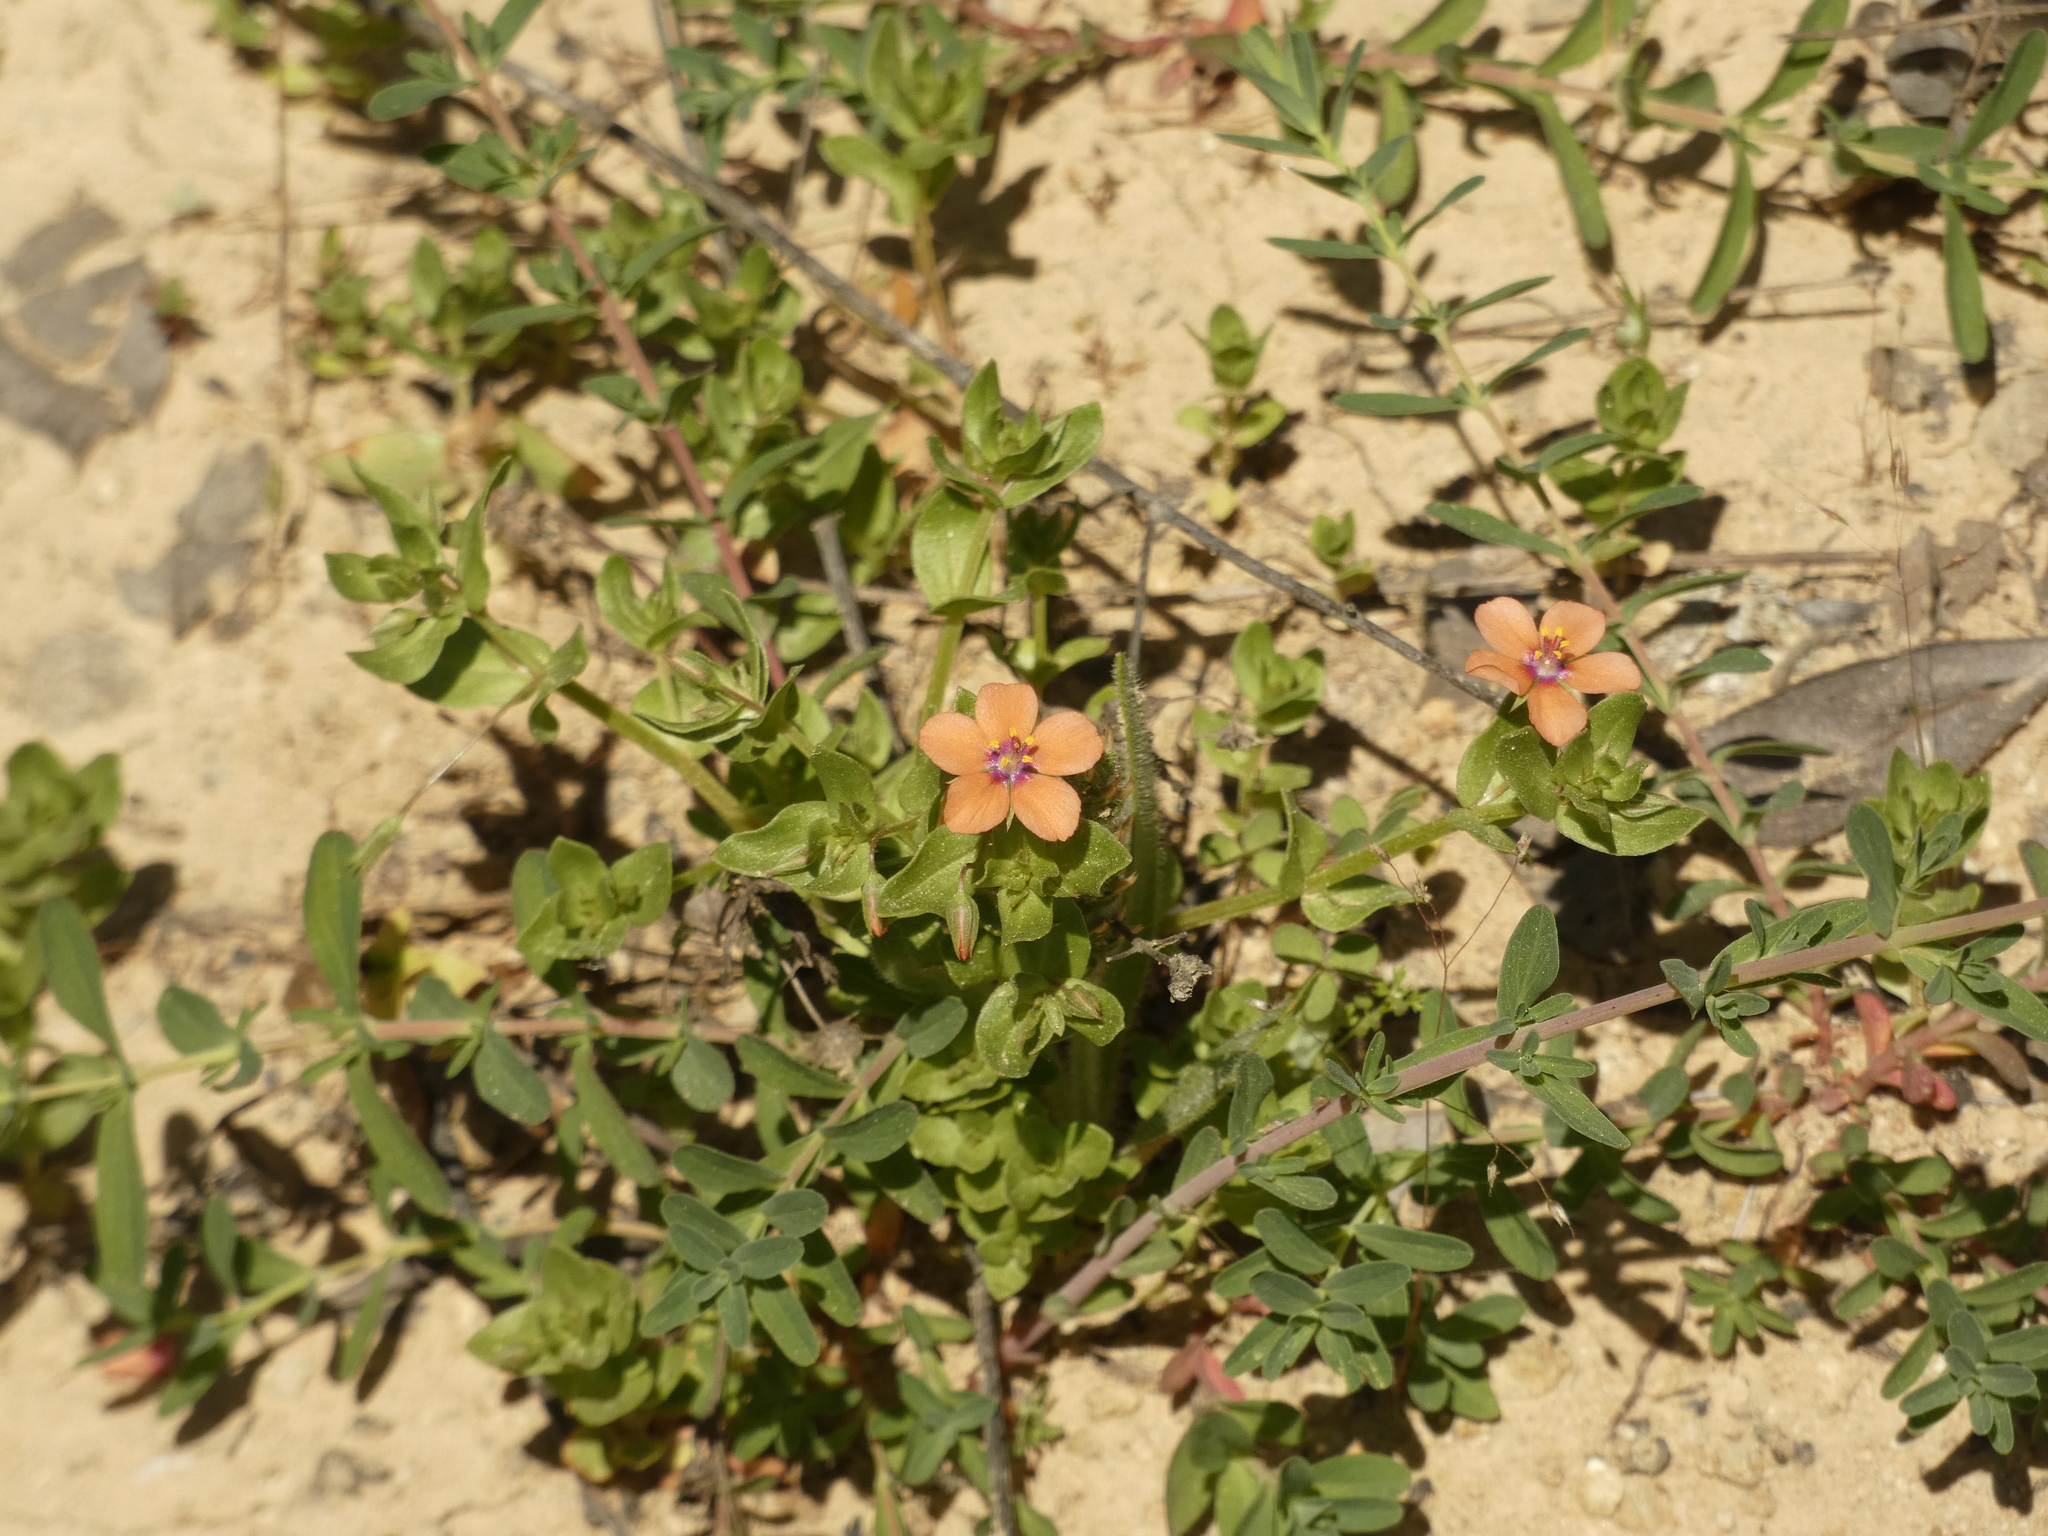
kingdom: Plantae
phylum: Tracheophyta
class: Magnoliopsida
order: Ericales
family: Primulaceae
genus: Lysimachia
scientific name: Lysimachia arvensis
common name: Scarlet pimpernel
